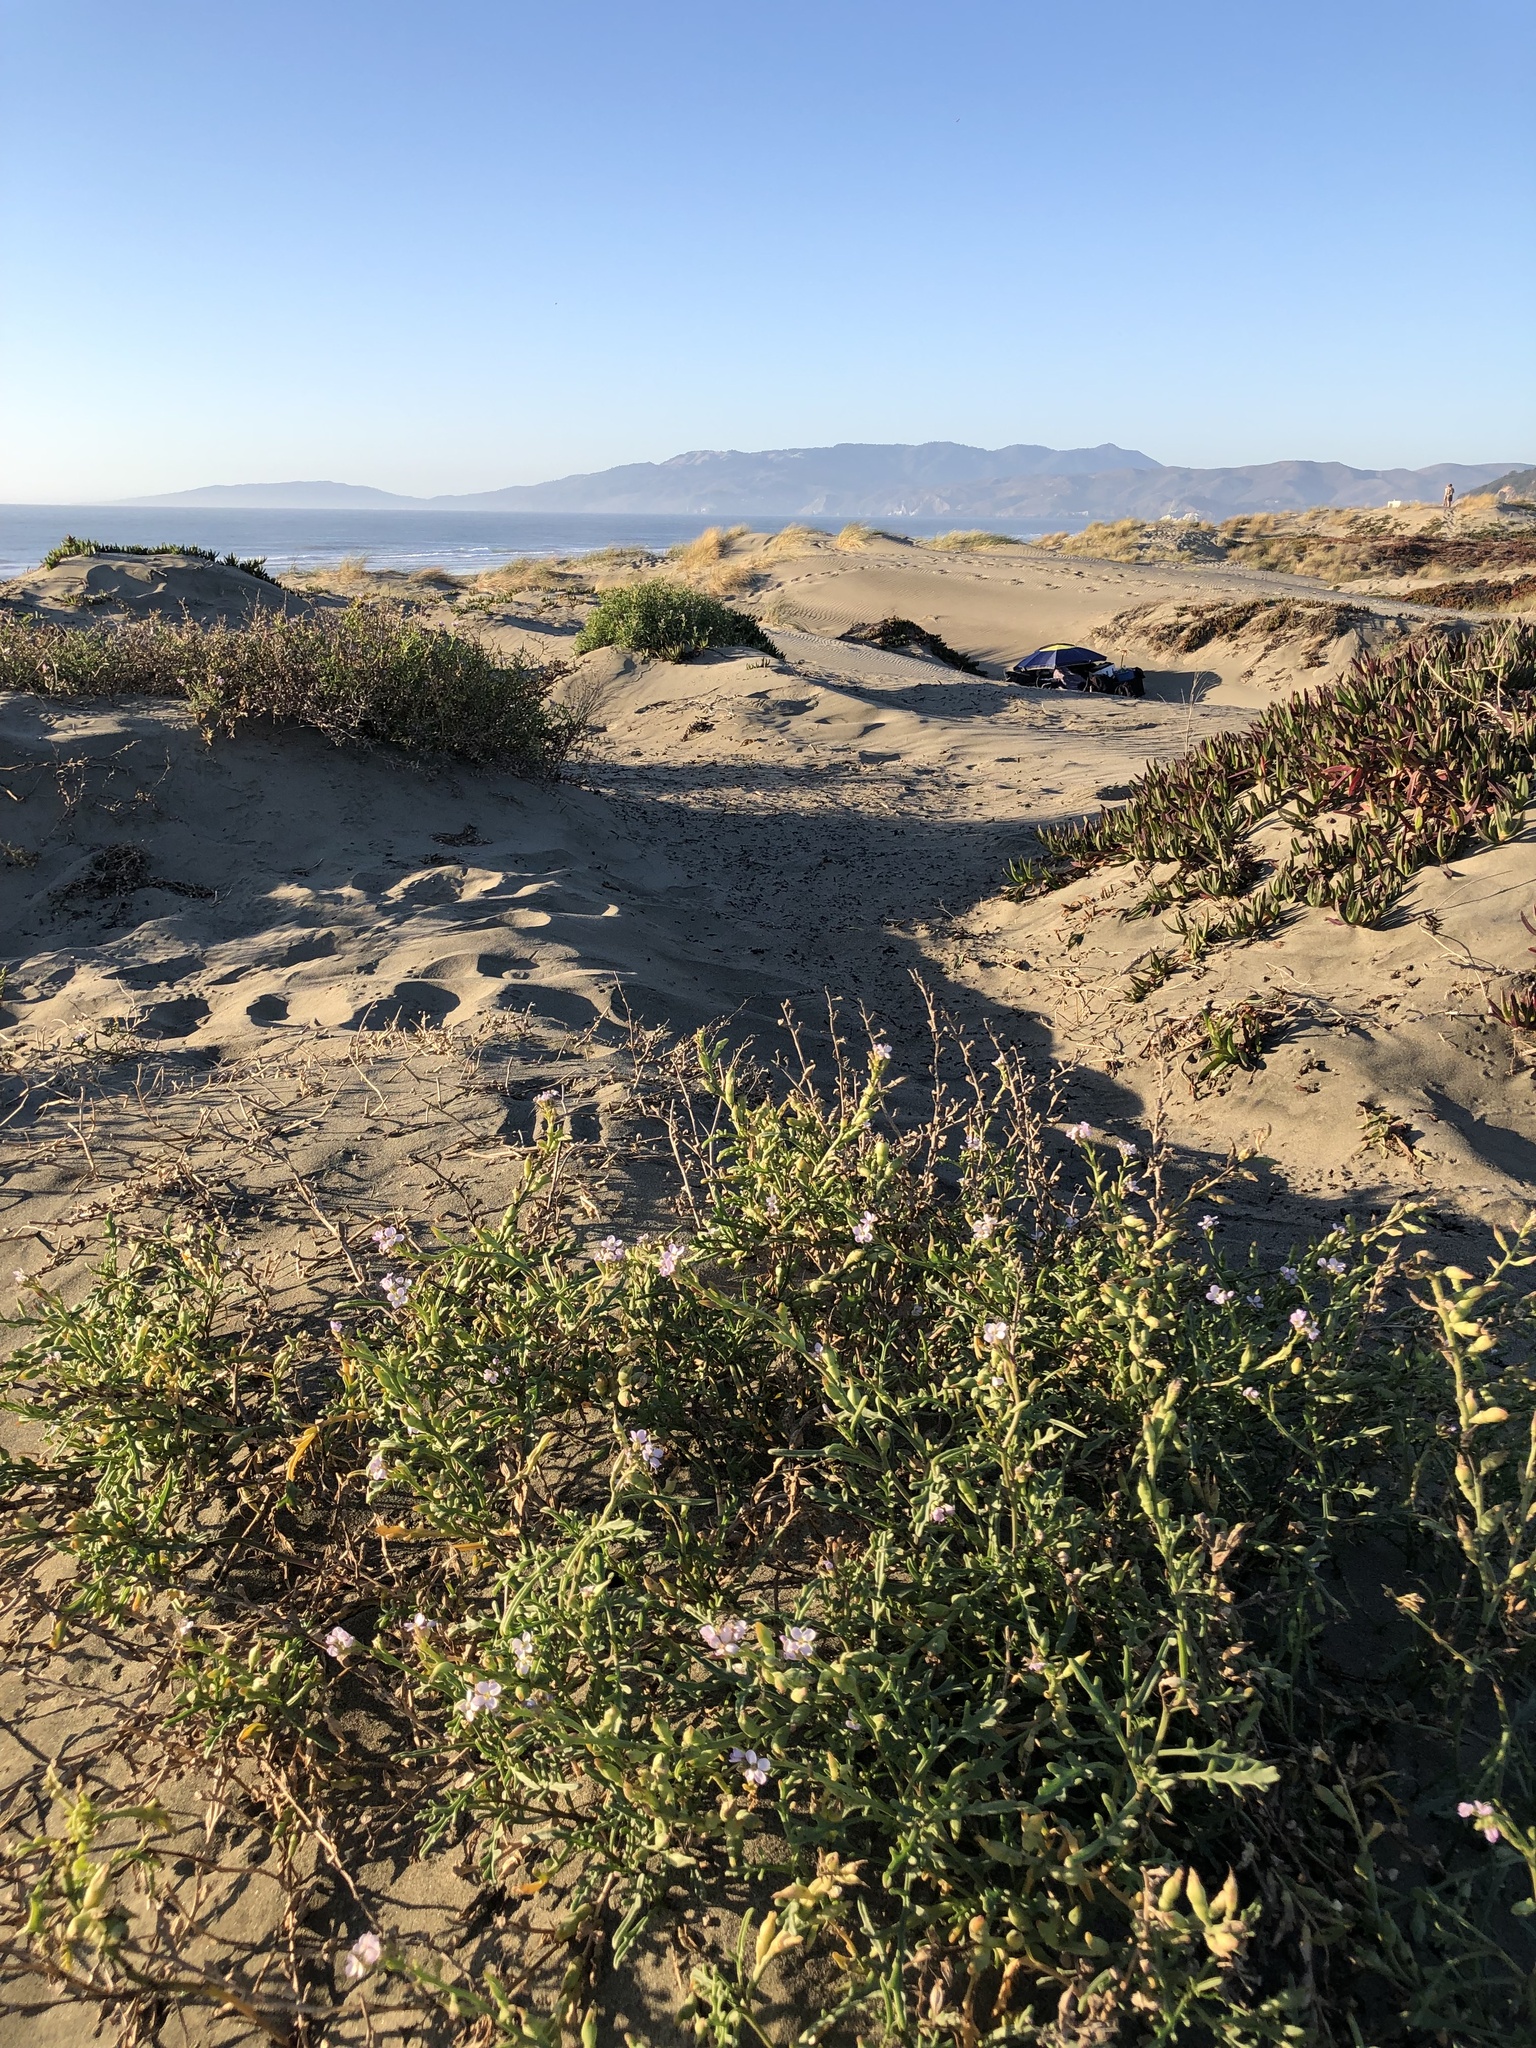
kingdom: Plantae
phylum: Tracheophyta
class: Magnoliopsida
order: Brassicales
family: Brassicaceae
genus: Cakile
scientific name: Cakile maritima
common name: Sea rocket
